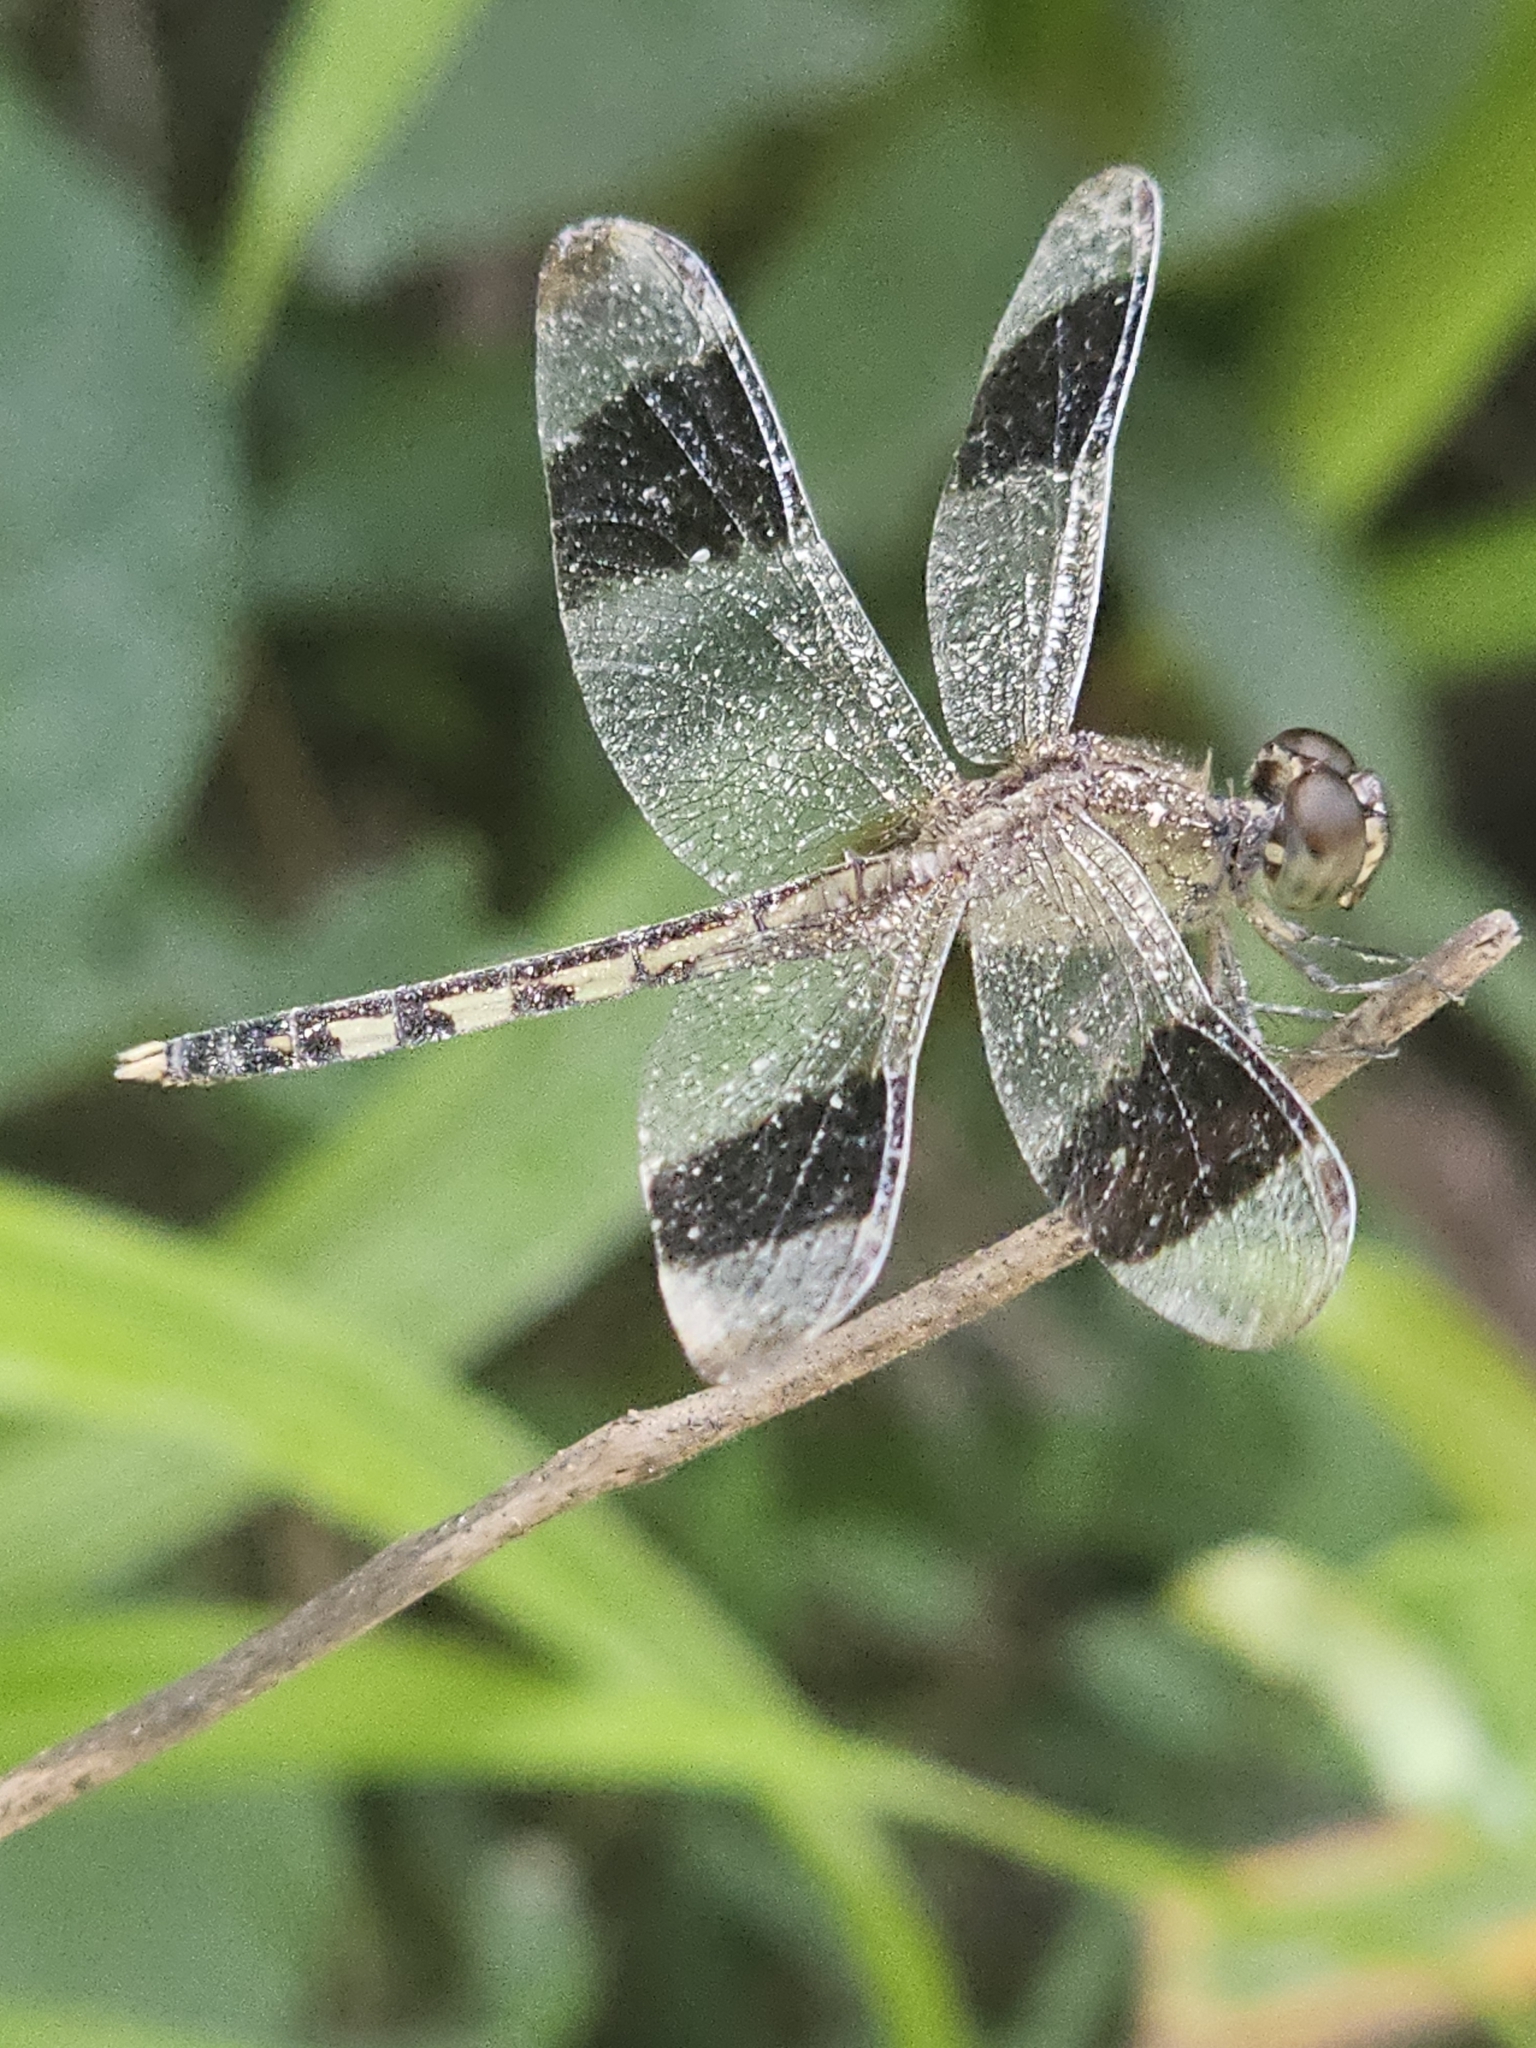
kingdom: Animalia
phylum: Arthropoda
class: Insecta
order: Odonata
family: Libellulidae
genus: Erythrodiplax
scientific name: Erythrodiplax umbrata
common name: Band-winged dragonlet
